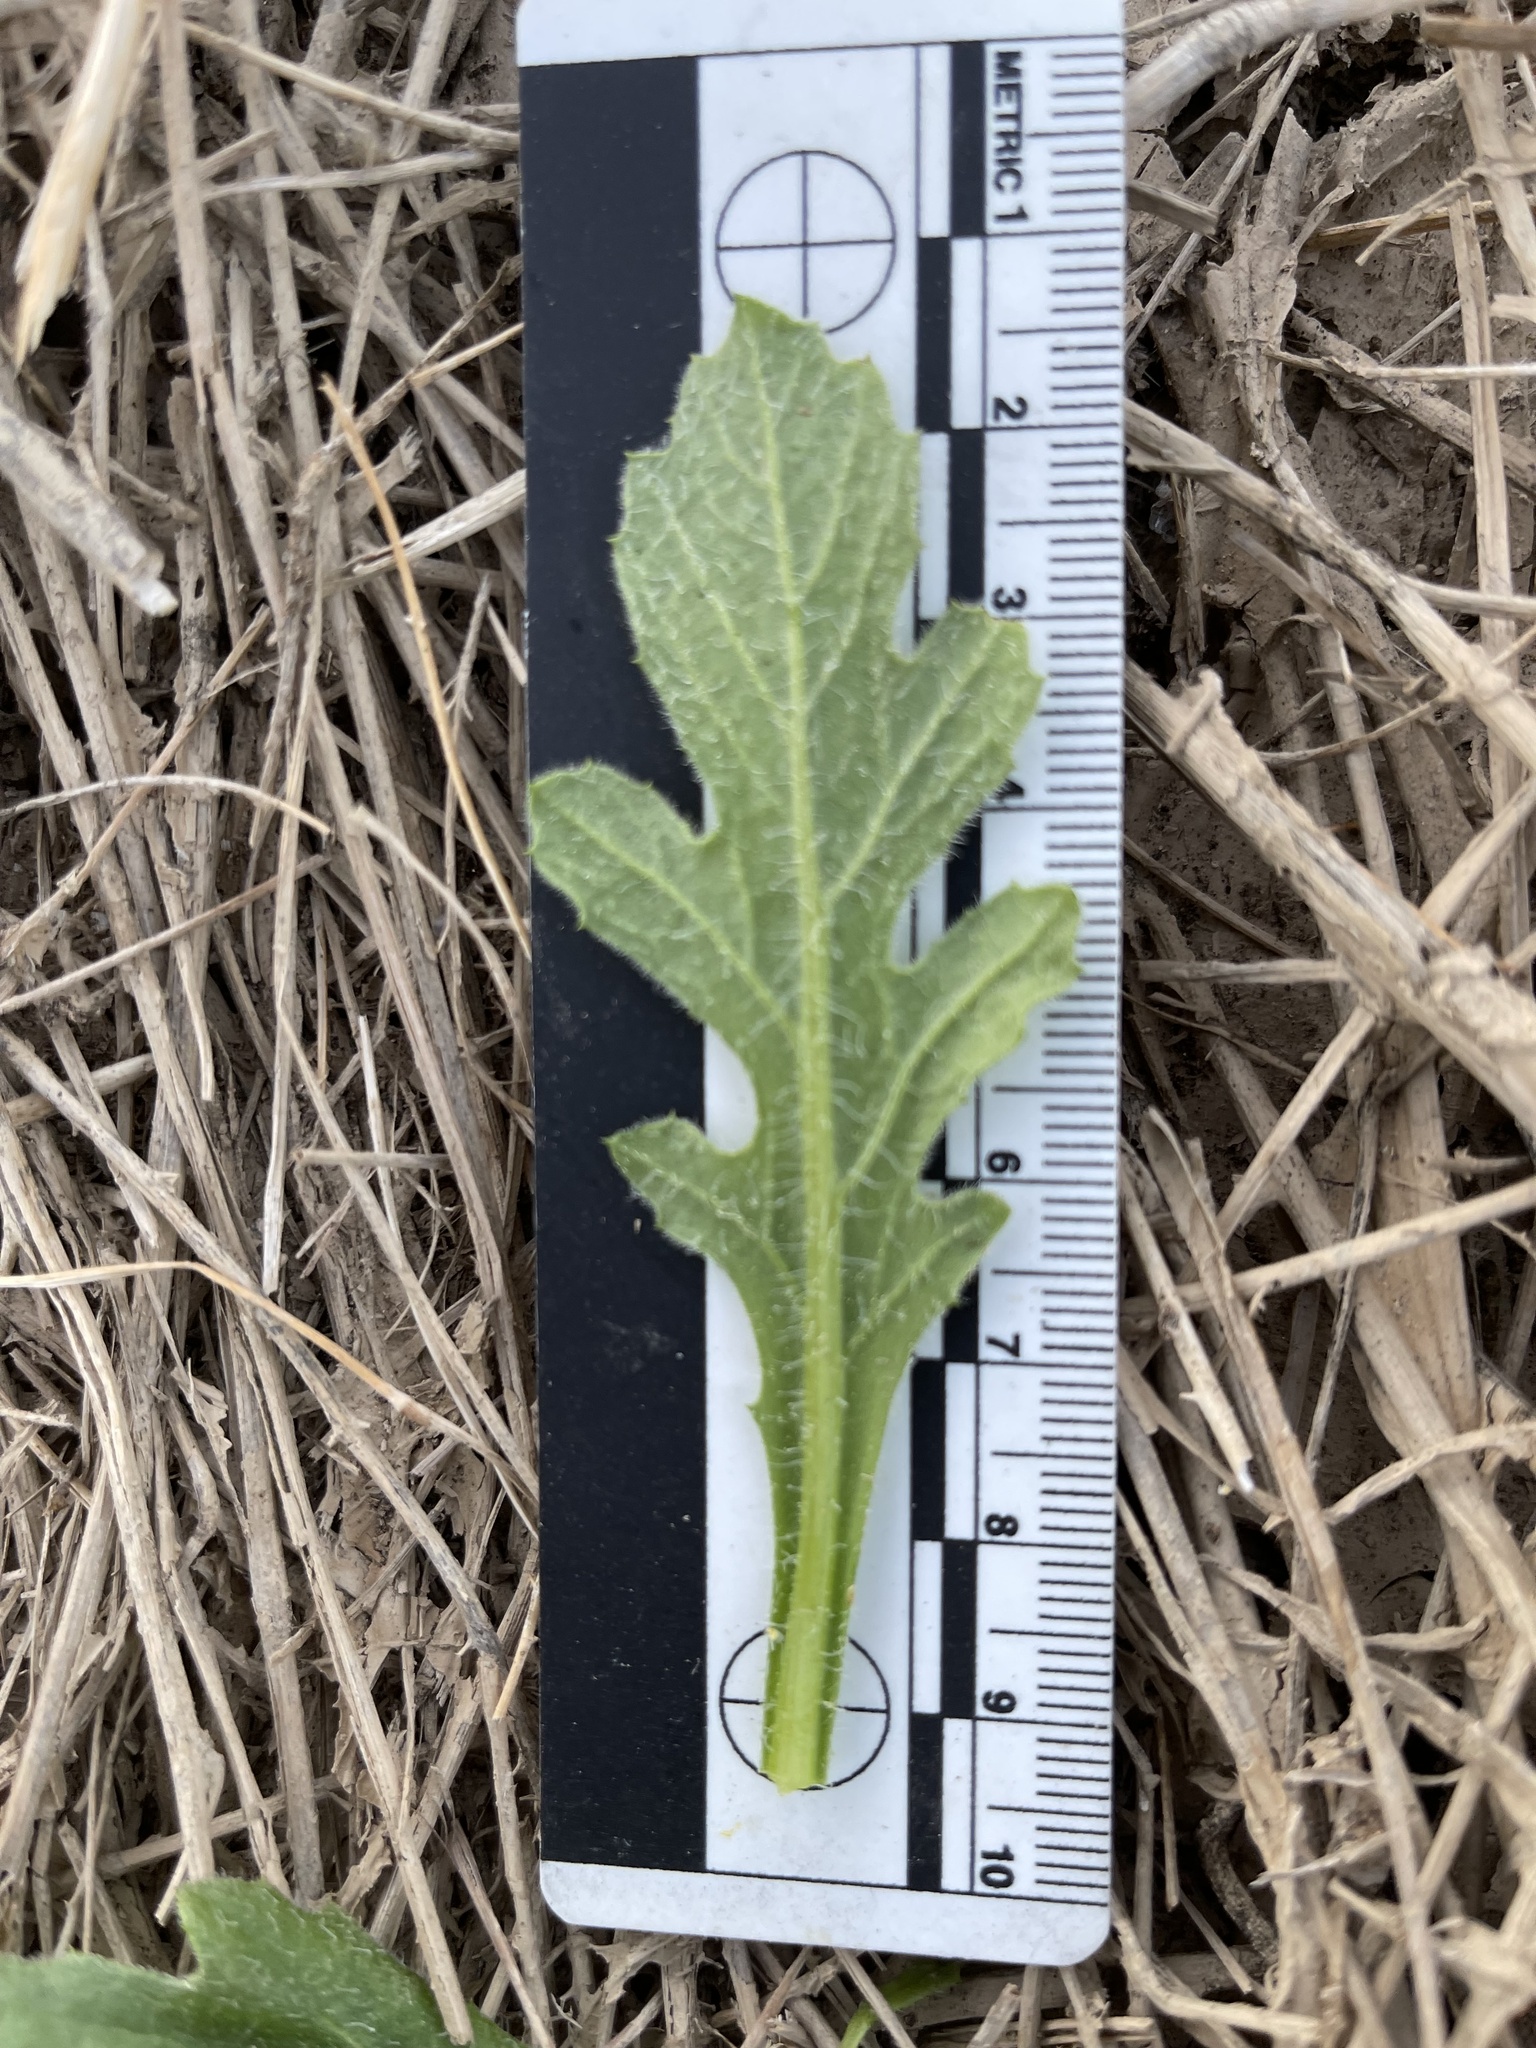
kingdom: Plantae
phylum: Tracheophyta
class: Magnoliopsida
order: Asterales
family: Asteraceae
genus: Volutaria
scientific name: Volutaria tubuliflora
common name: Desert knapweed
